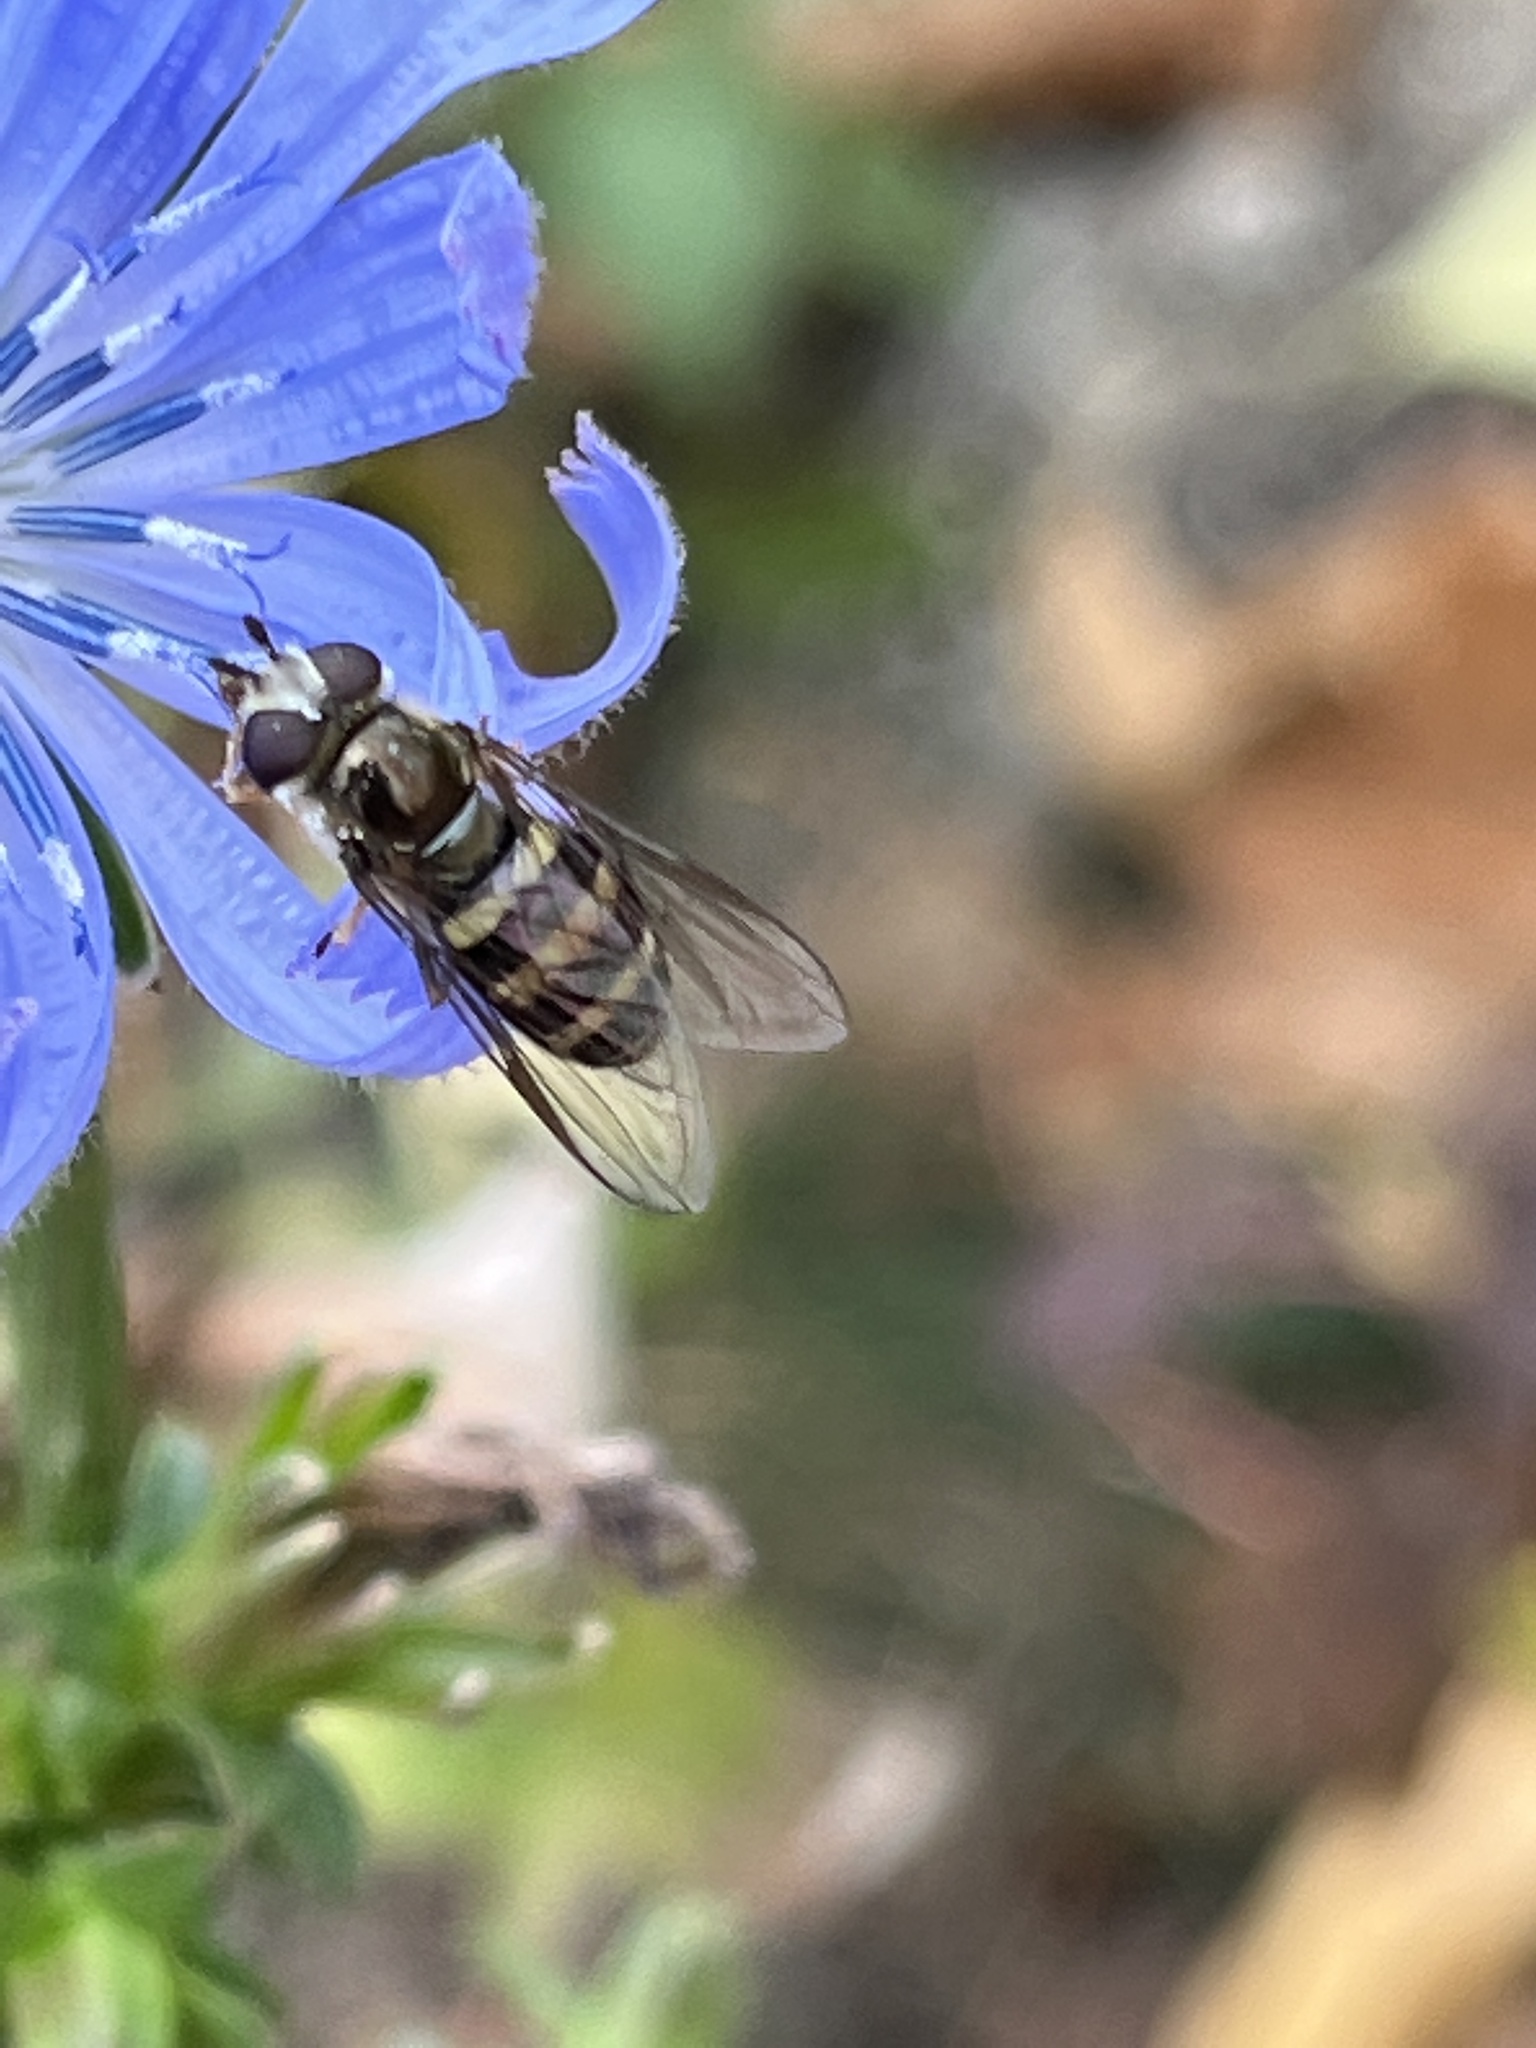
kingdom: Animalia
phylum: Arthropoda
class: Insecta
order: Diptera
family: Syrphidae
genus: Eupeodes
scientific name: Eupeodes
